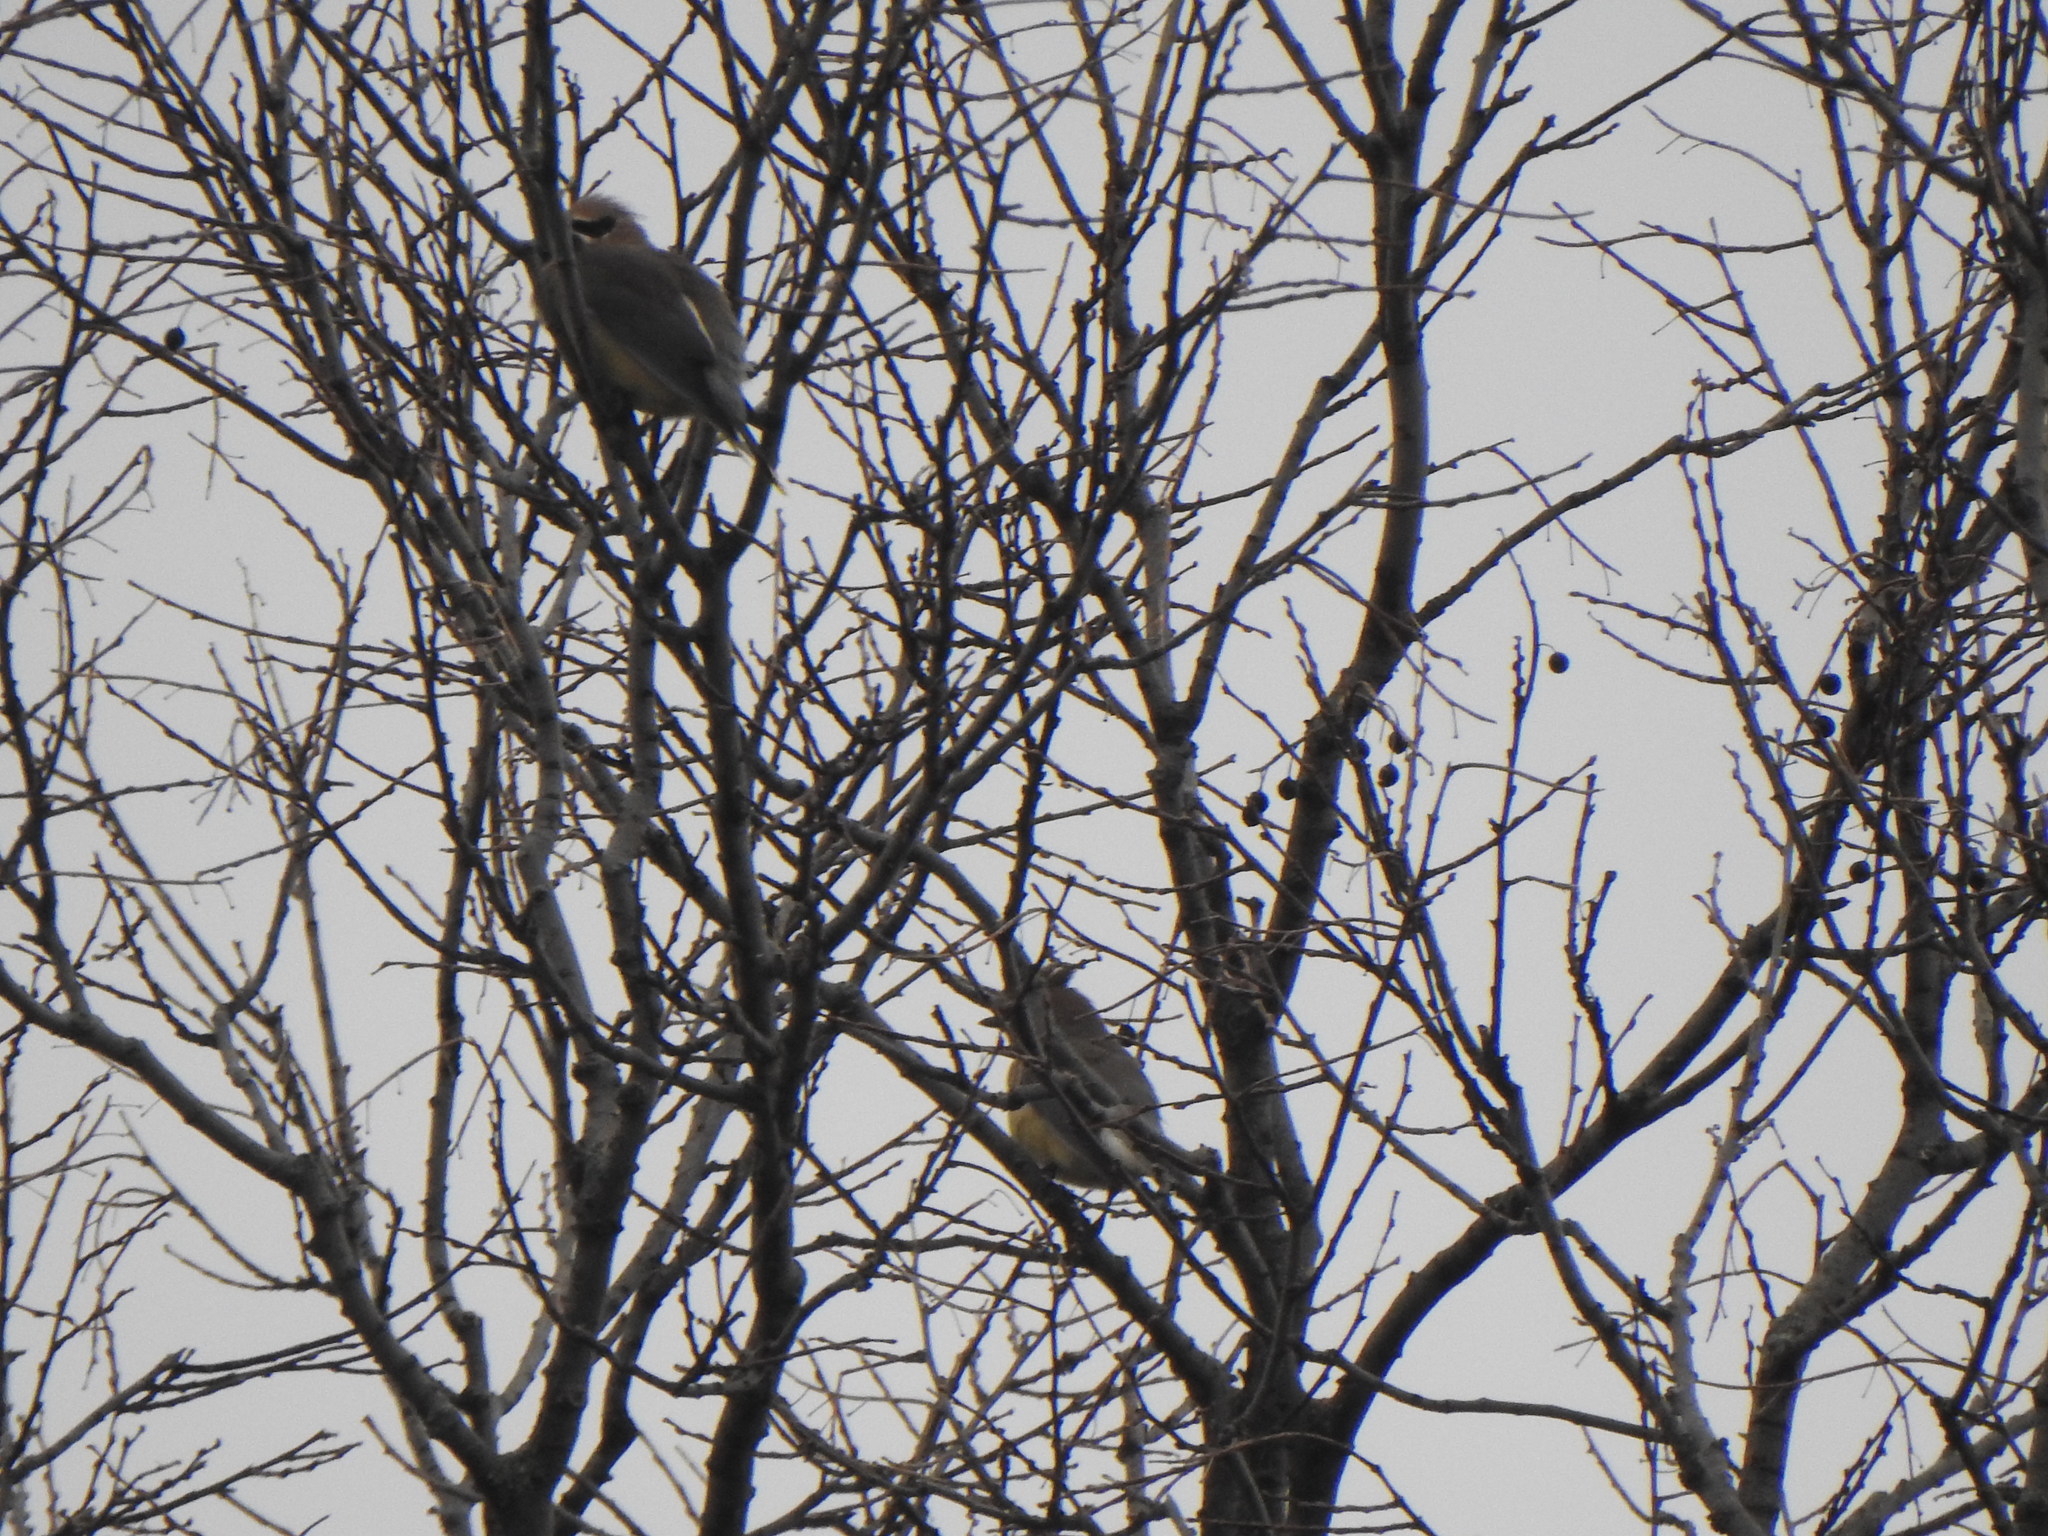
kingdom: Animalia
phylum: Chordata
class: Aves
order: Passeriformes
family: Bombycillidae
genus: Bombycilla
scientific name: Bombycilla cedrorum
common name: Cedar waxwing
